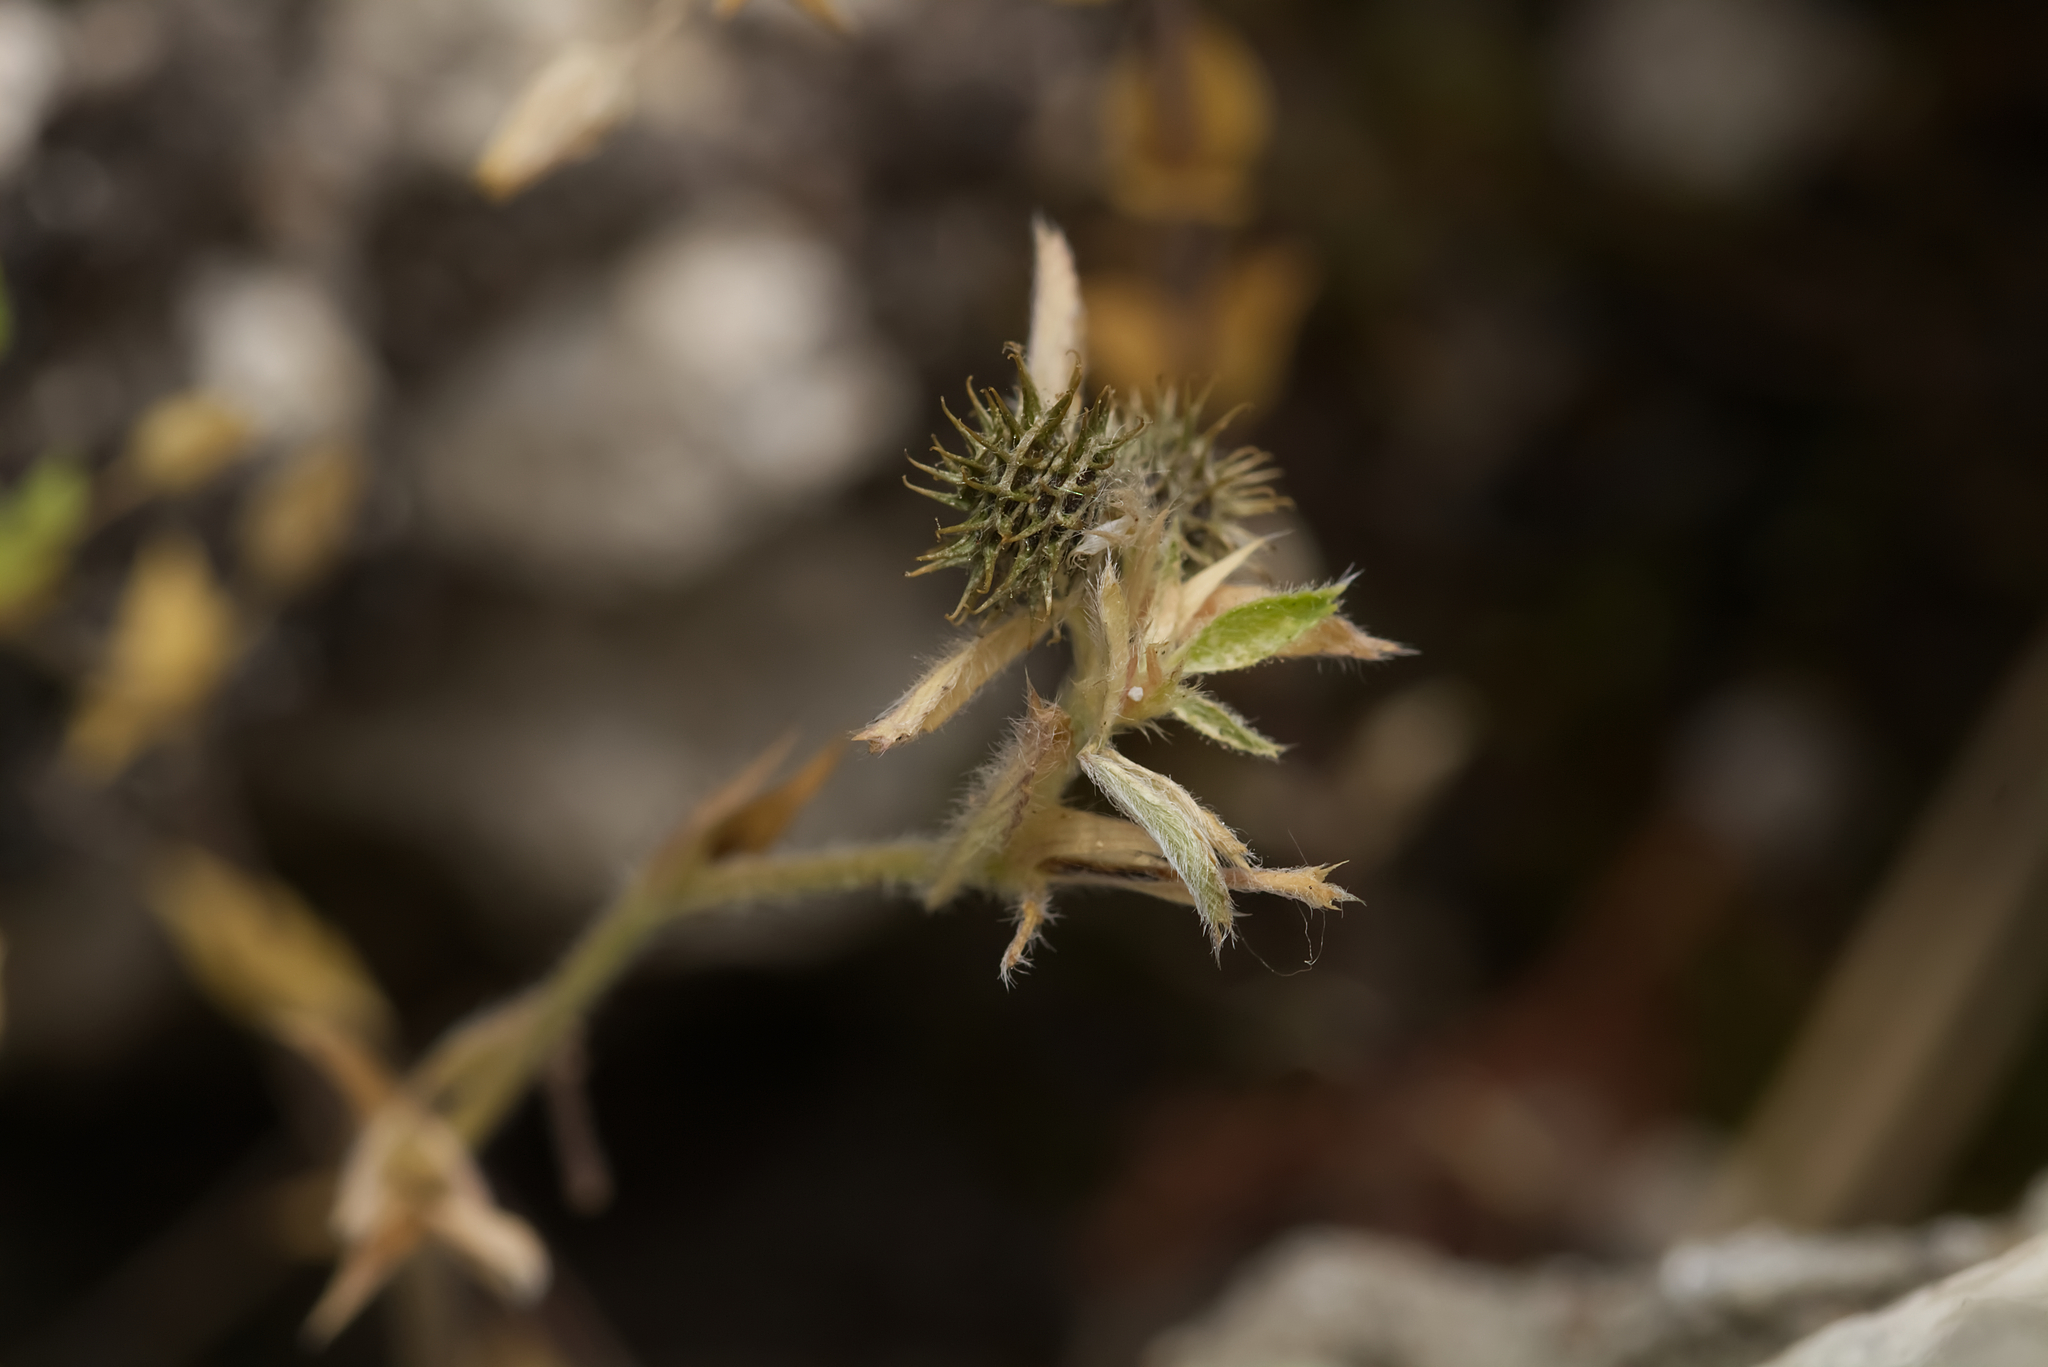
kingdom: Plantae
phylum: Tracheophyta
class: Magnoliopsida
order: Fabales
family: Fabaceae
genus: Medicago
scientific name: Medicago minima
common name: Little bur-clover
